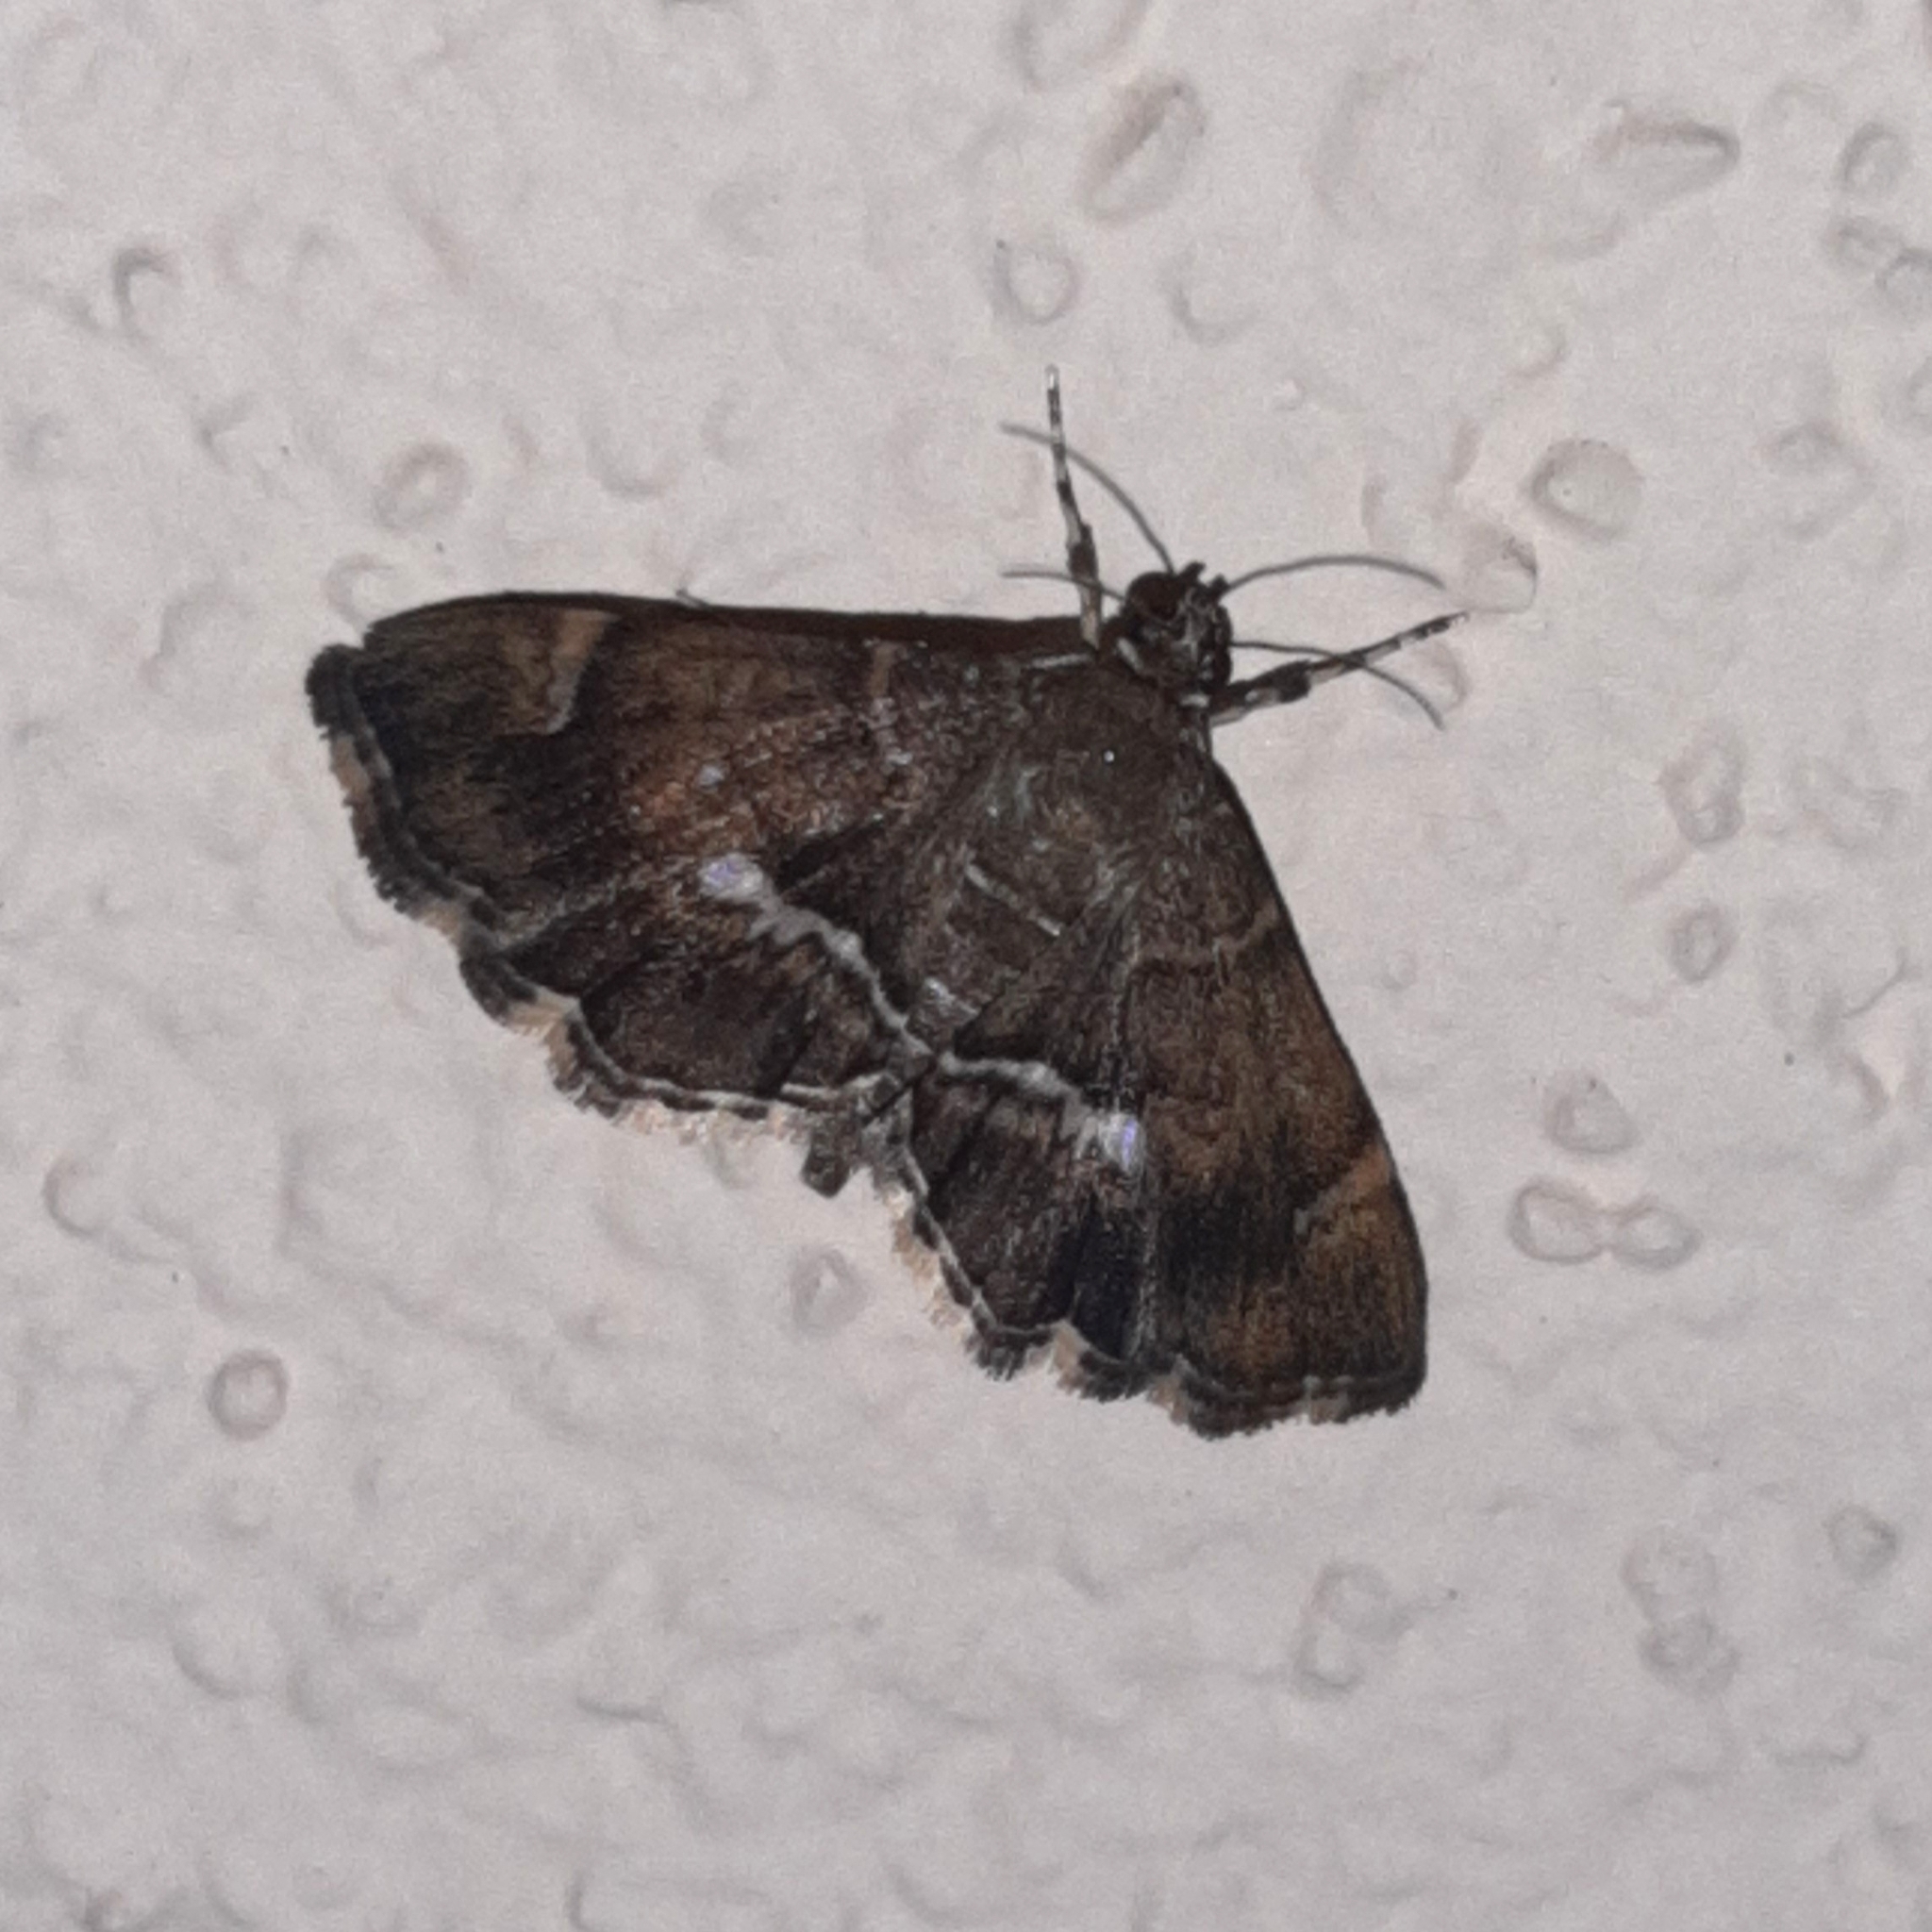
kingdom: Animalia
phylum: Arthropoda
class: Insecta
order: Lepidoptera
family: Crambidae
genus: Hymenia
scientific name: Hymenia perspectalis
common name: Spotted beet webworm
